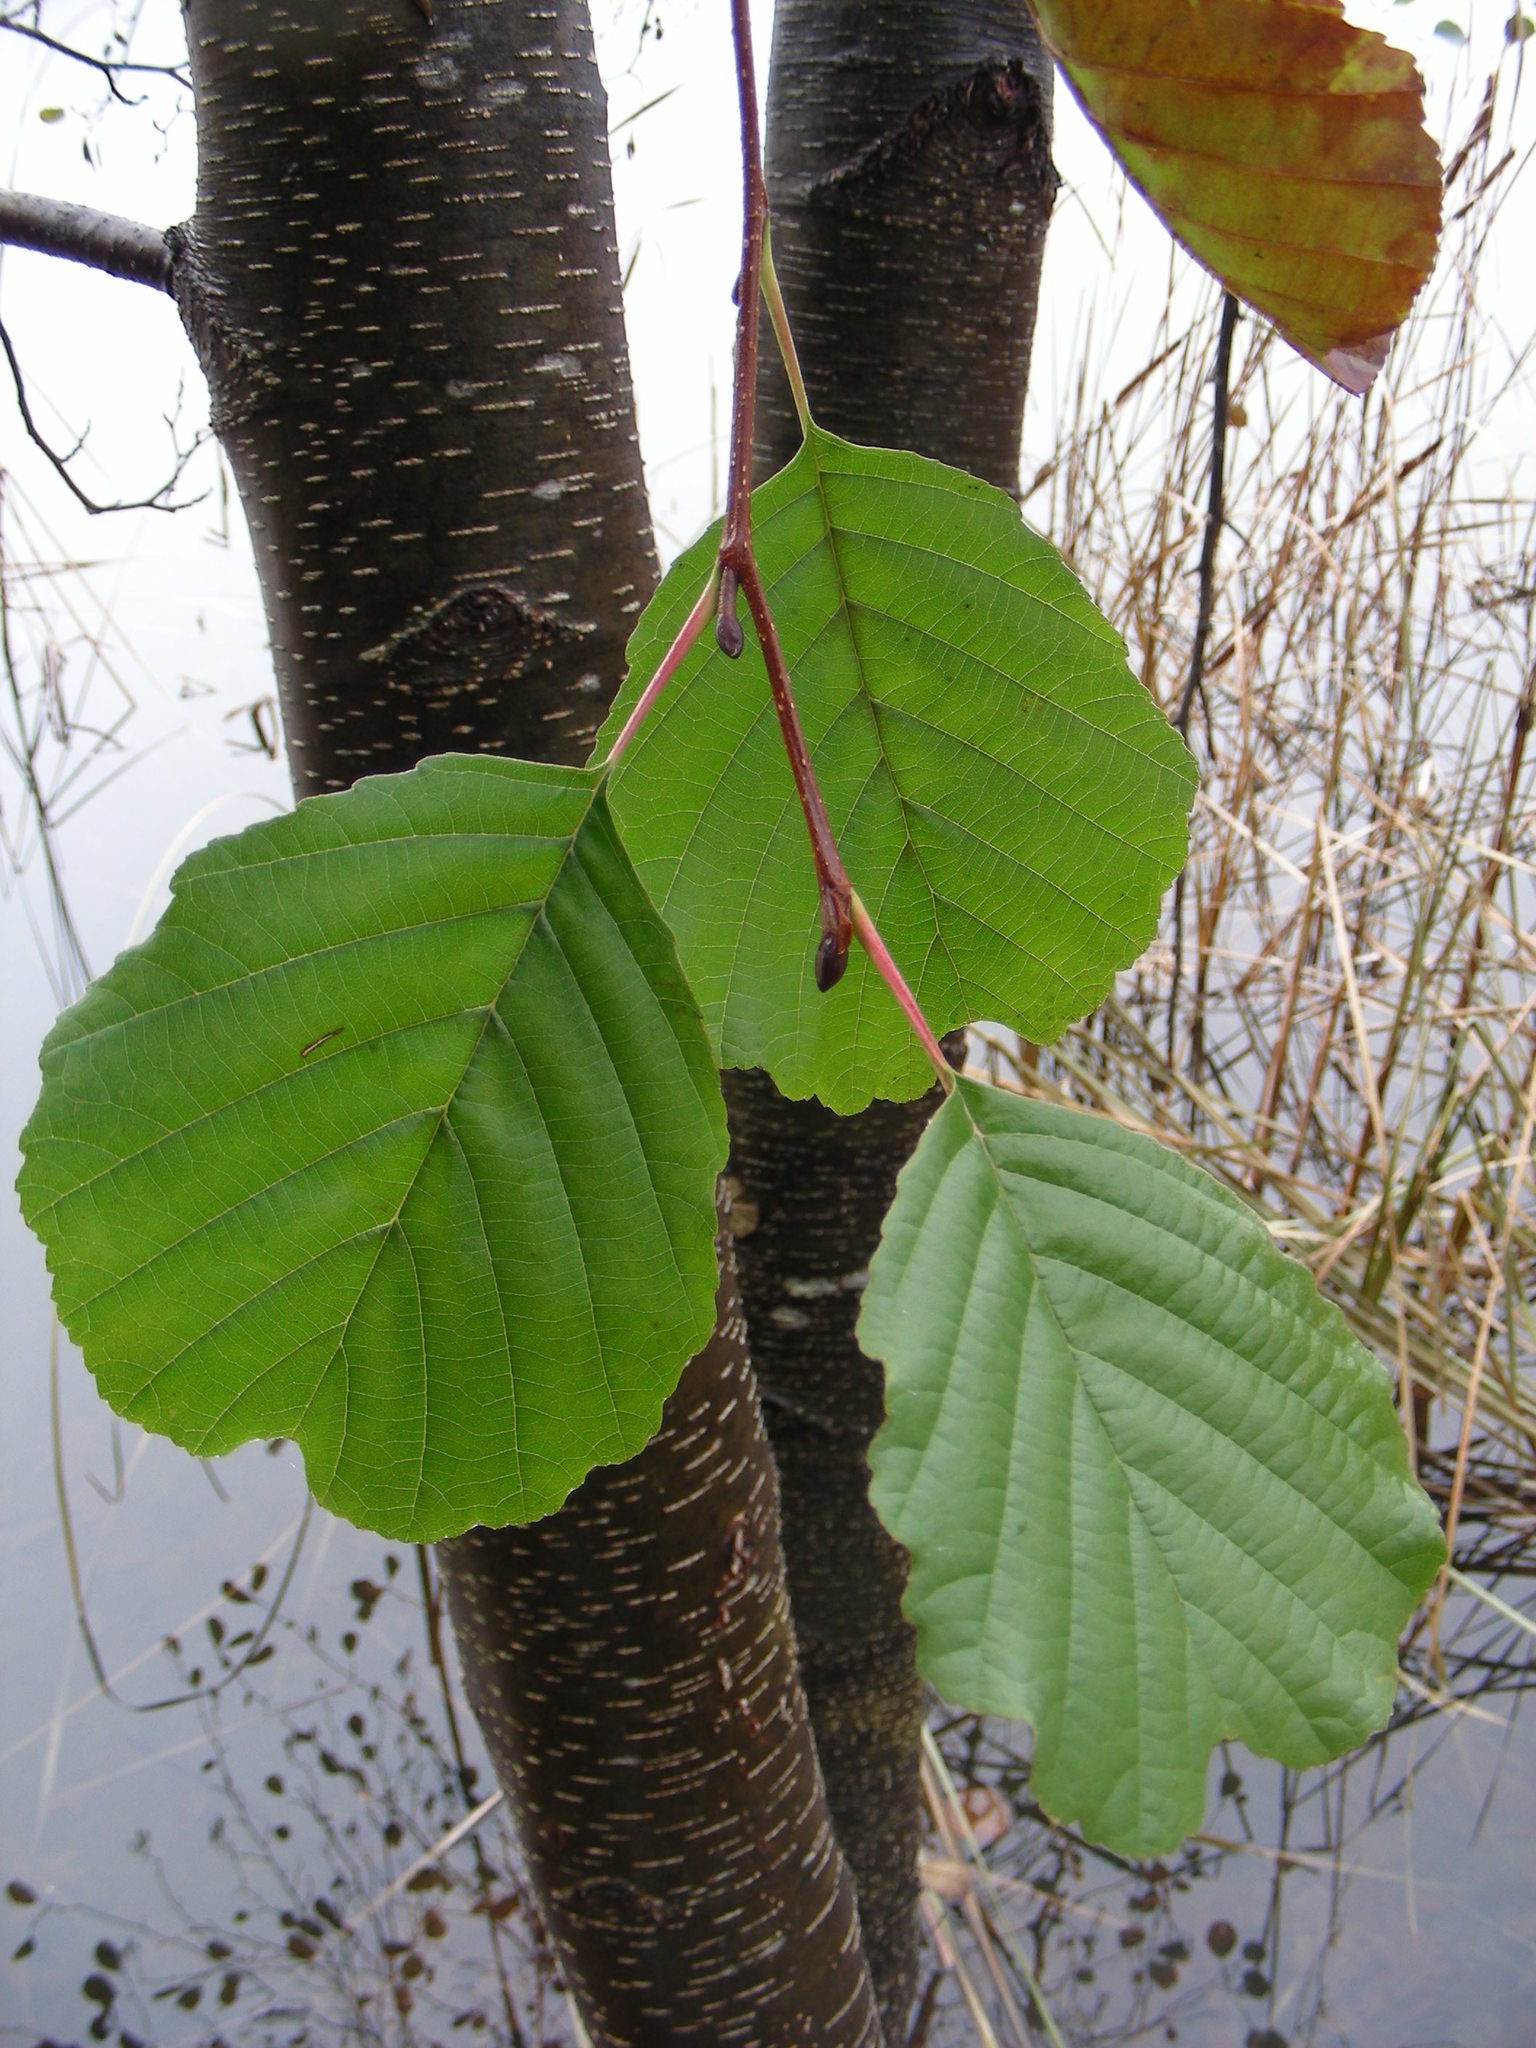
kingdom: Plantae
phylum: Tracheophyta
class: Magnoliopsida
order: Fagales
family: Betulaceae
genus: Alnus
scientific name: Alnus glutinosa
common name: Black alder
